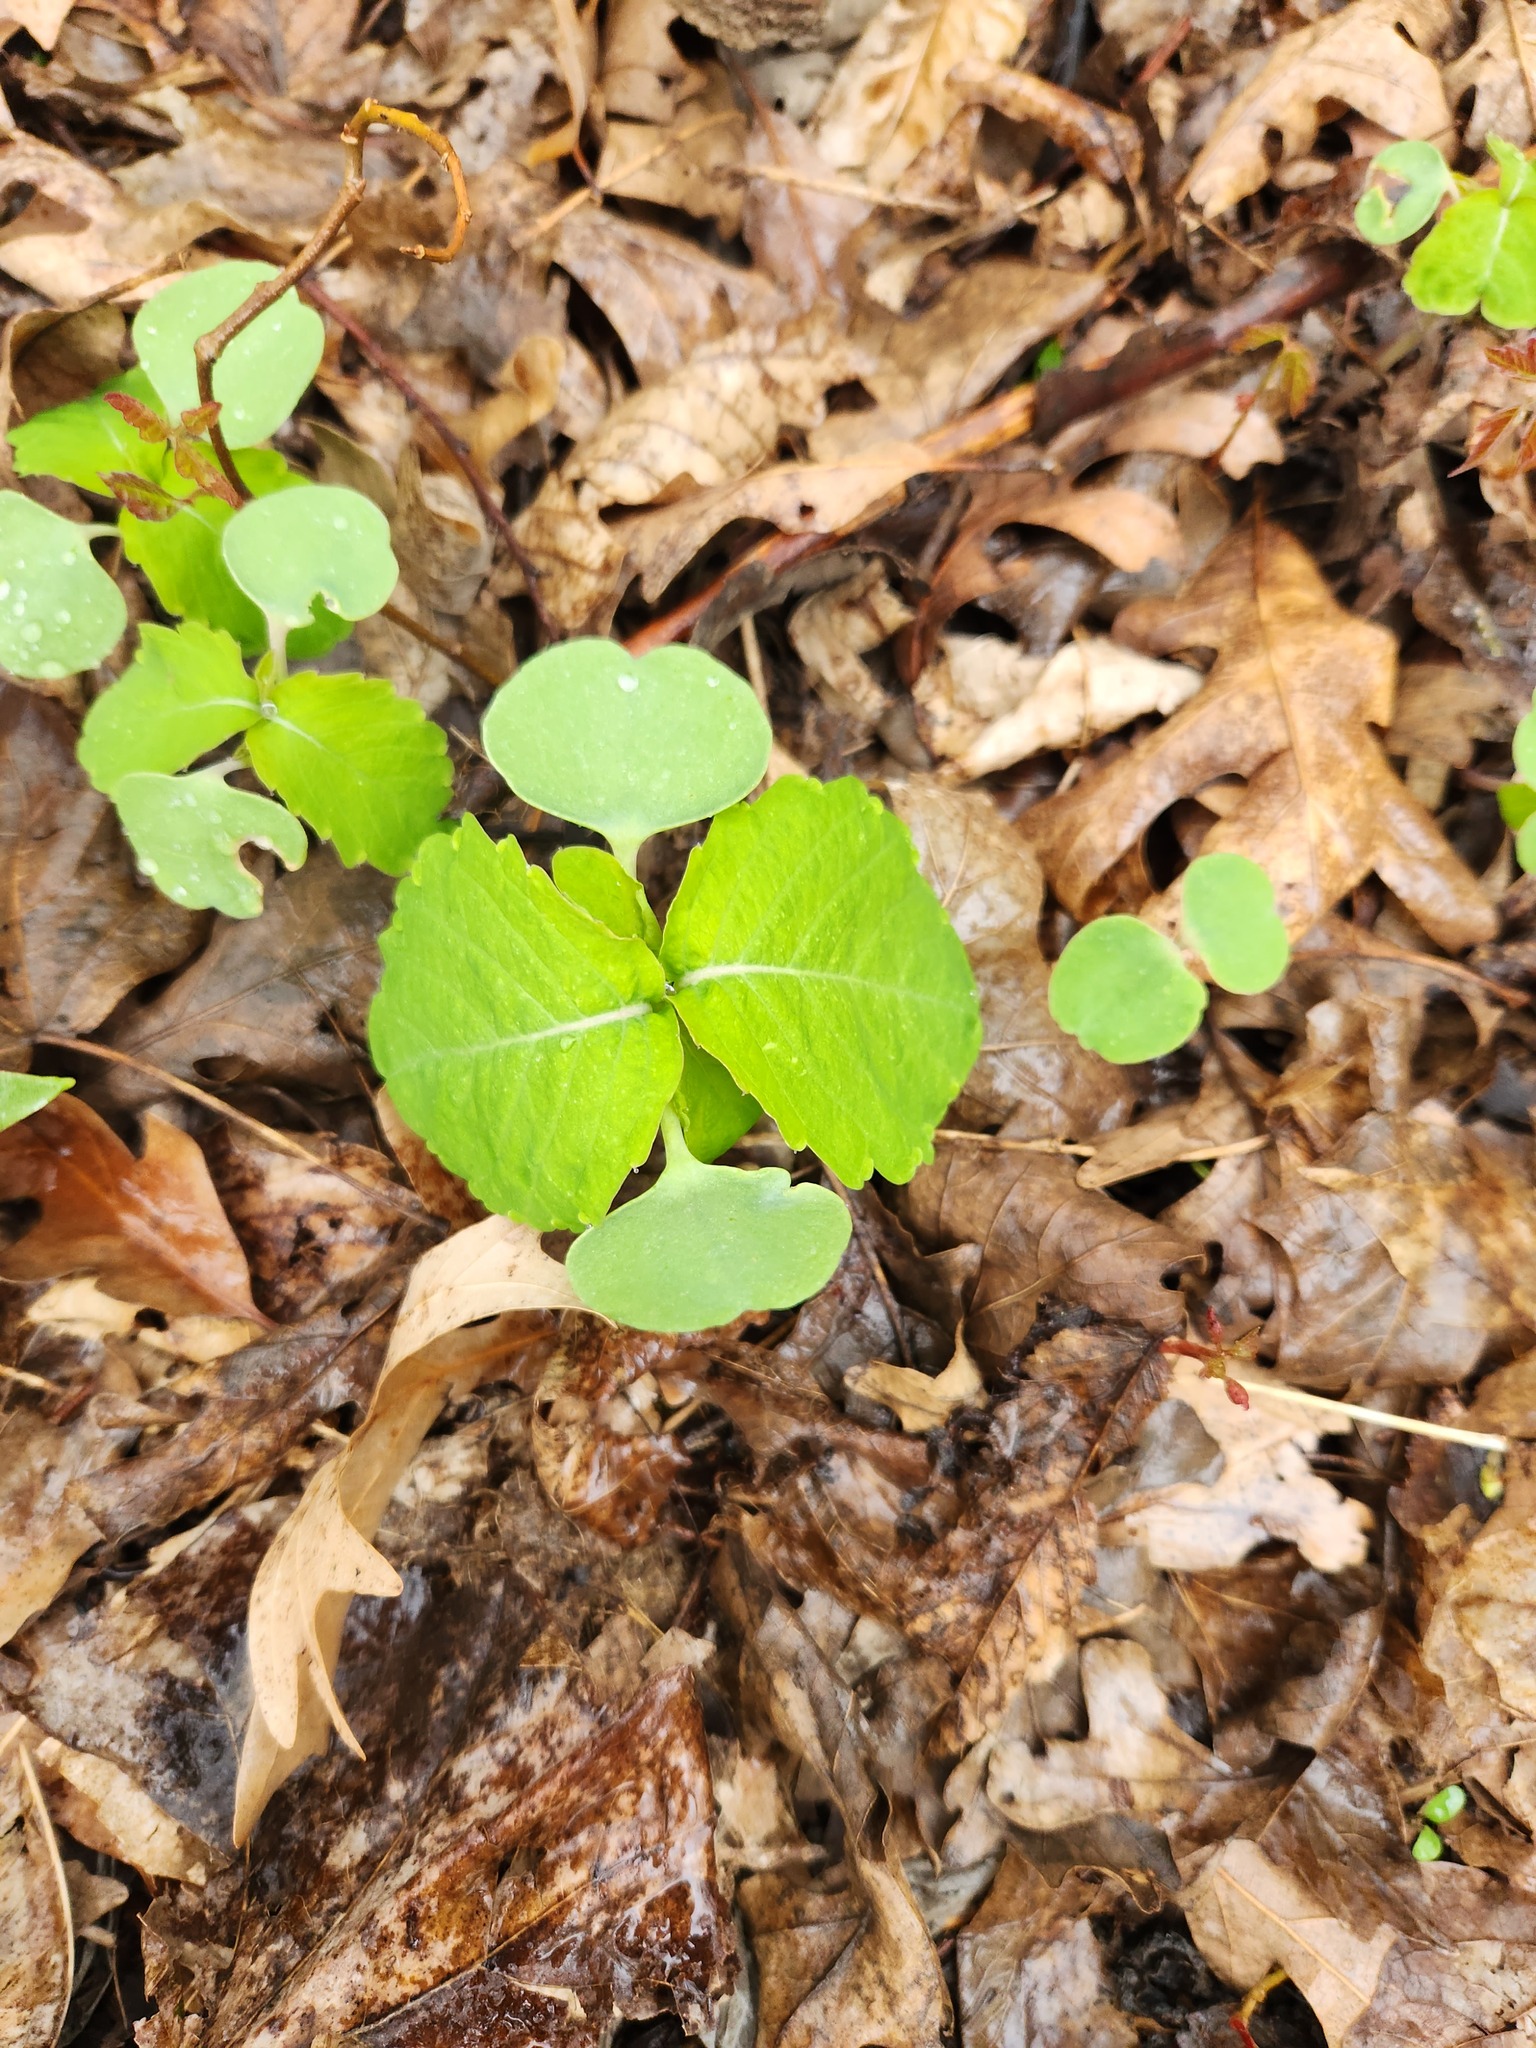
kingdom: Plantae
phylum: Tracheophyta
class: Magnoliopsida
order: Ericales
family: Balsaminaceae
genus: Impatiens
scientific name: Impatiens capensis
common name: Orange balsam
